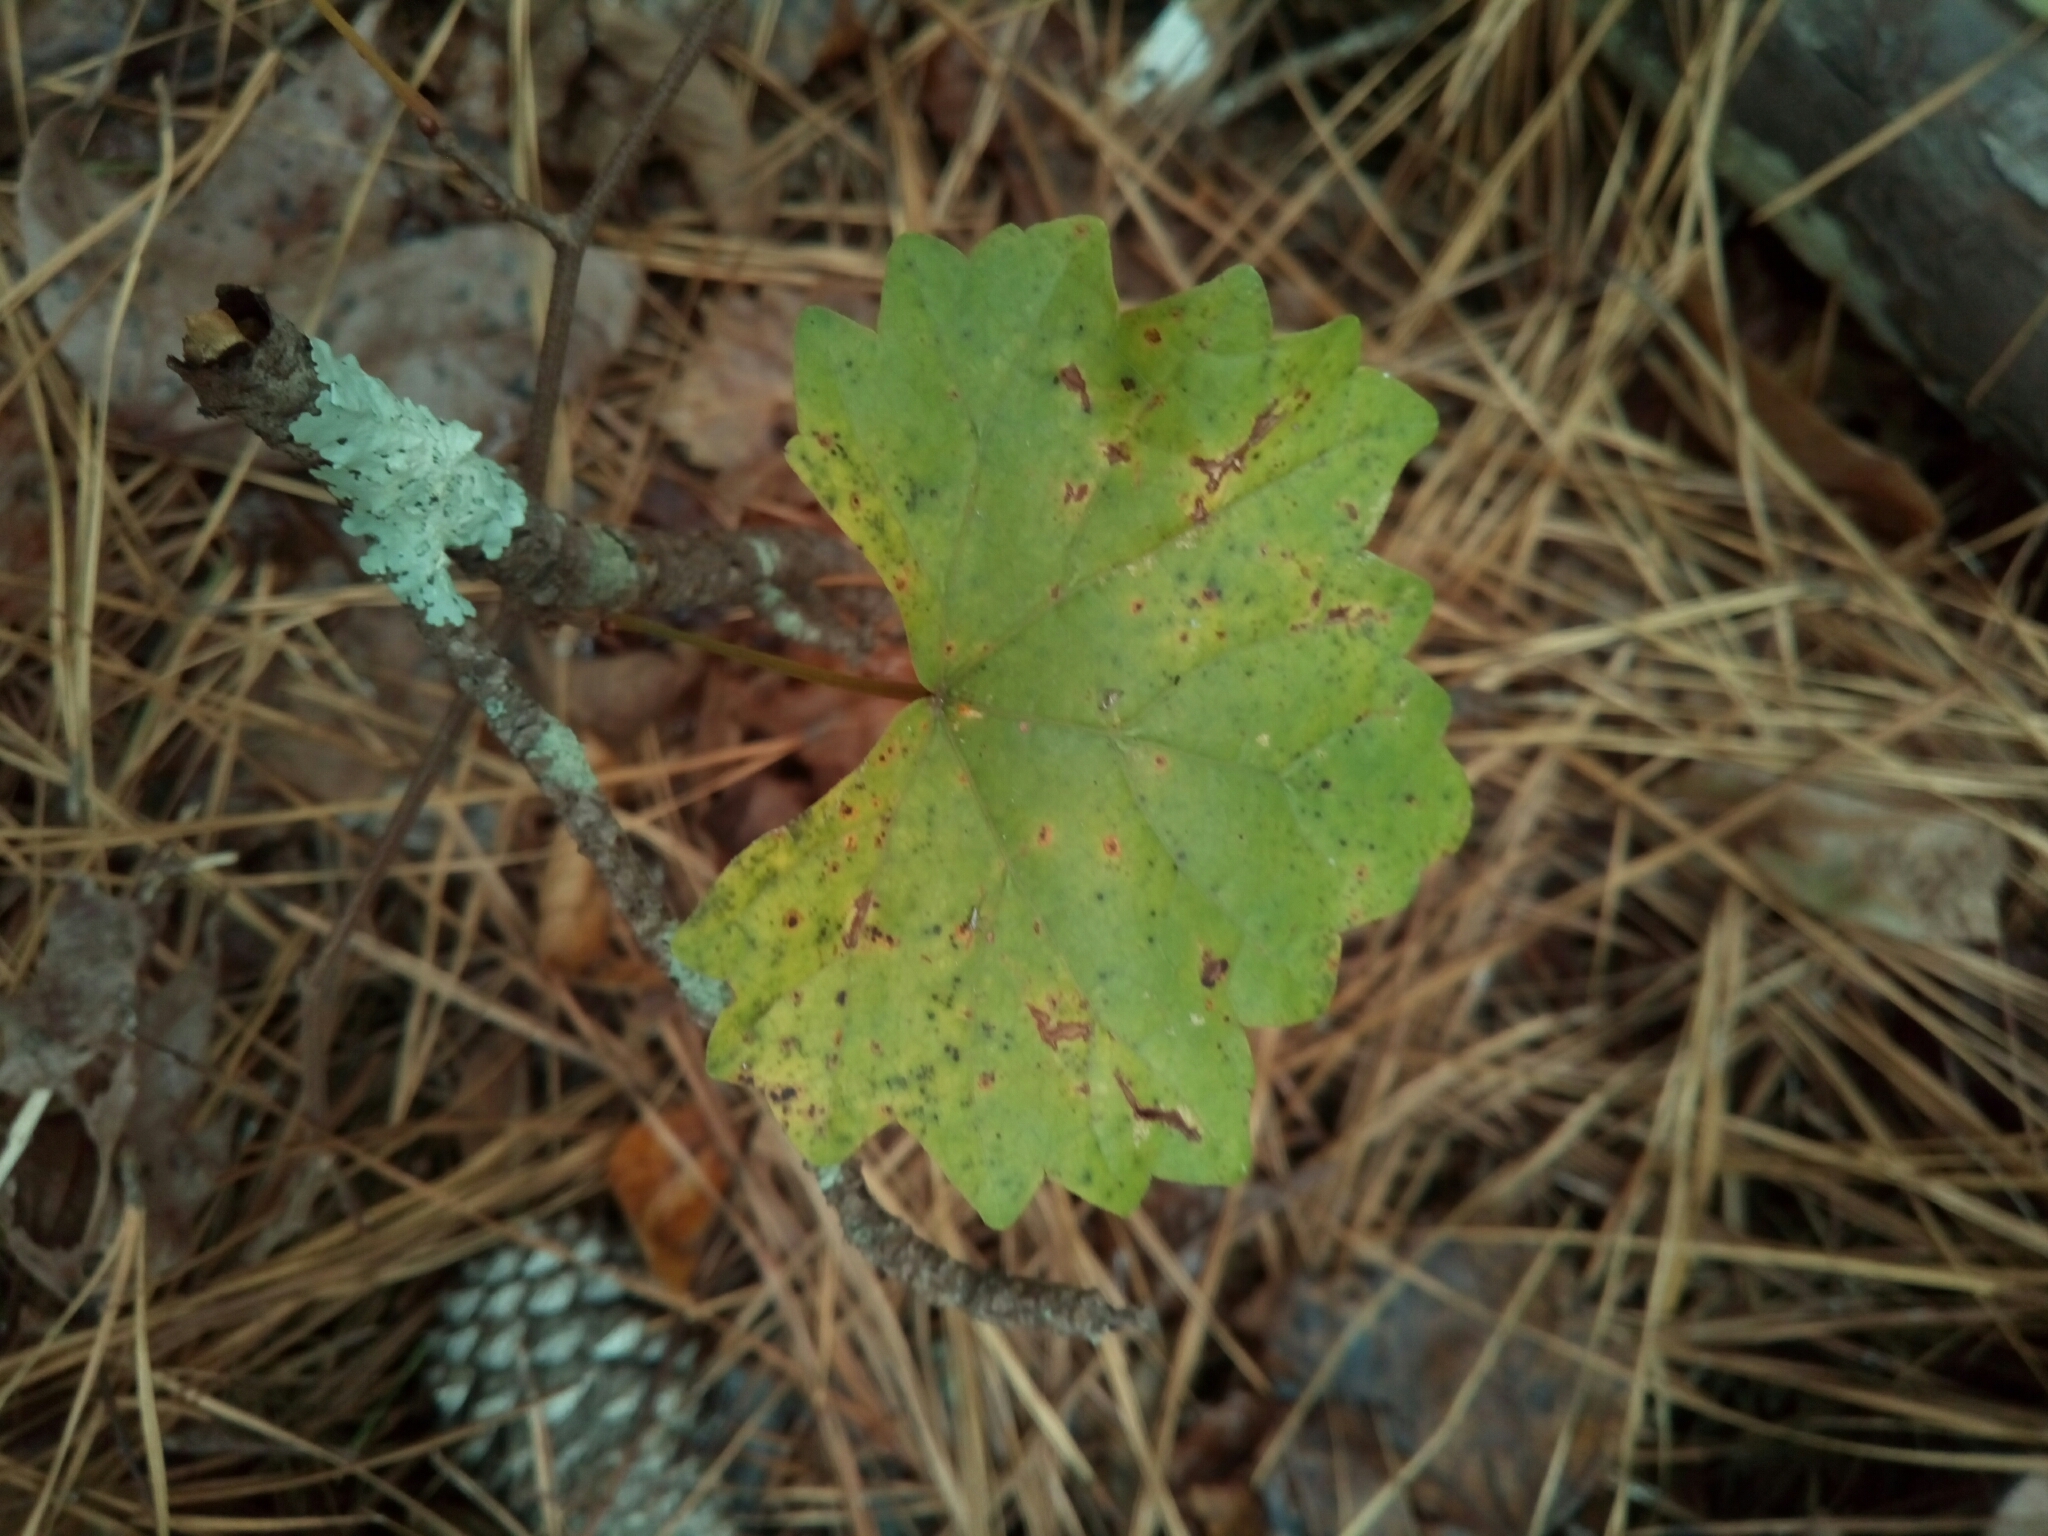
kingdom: Plantae
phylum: Tracheophyta
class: Magnoliopsida
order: Vitales
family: Vitaceae
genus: Vitis
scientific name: Vitis rotundifolia
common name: Muscadine grape
